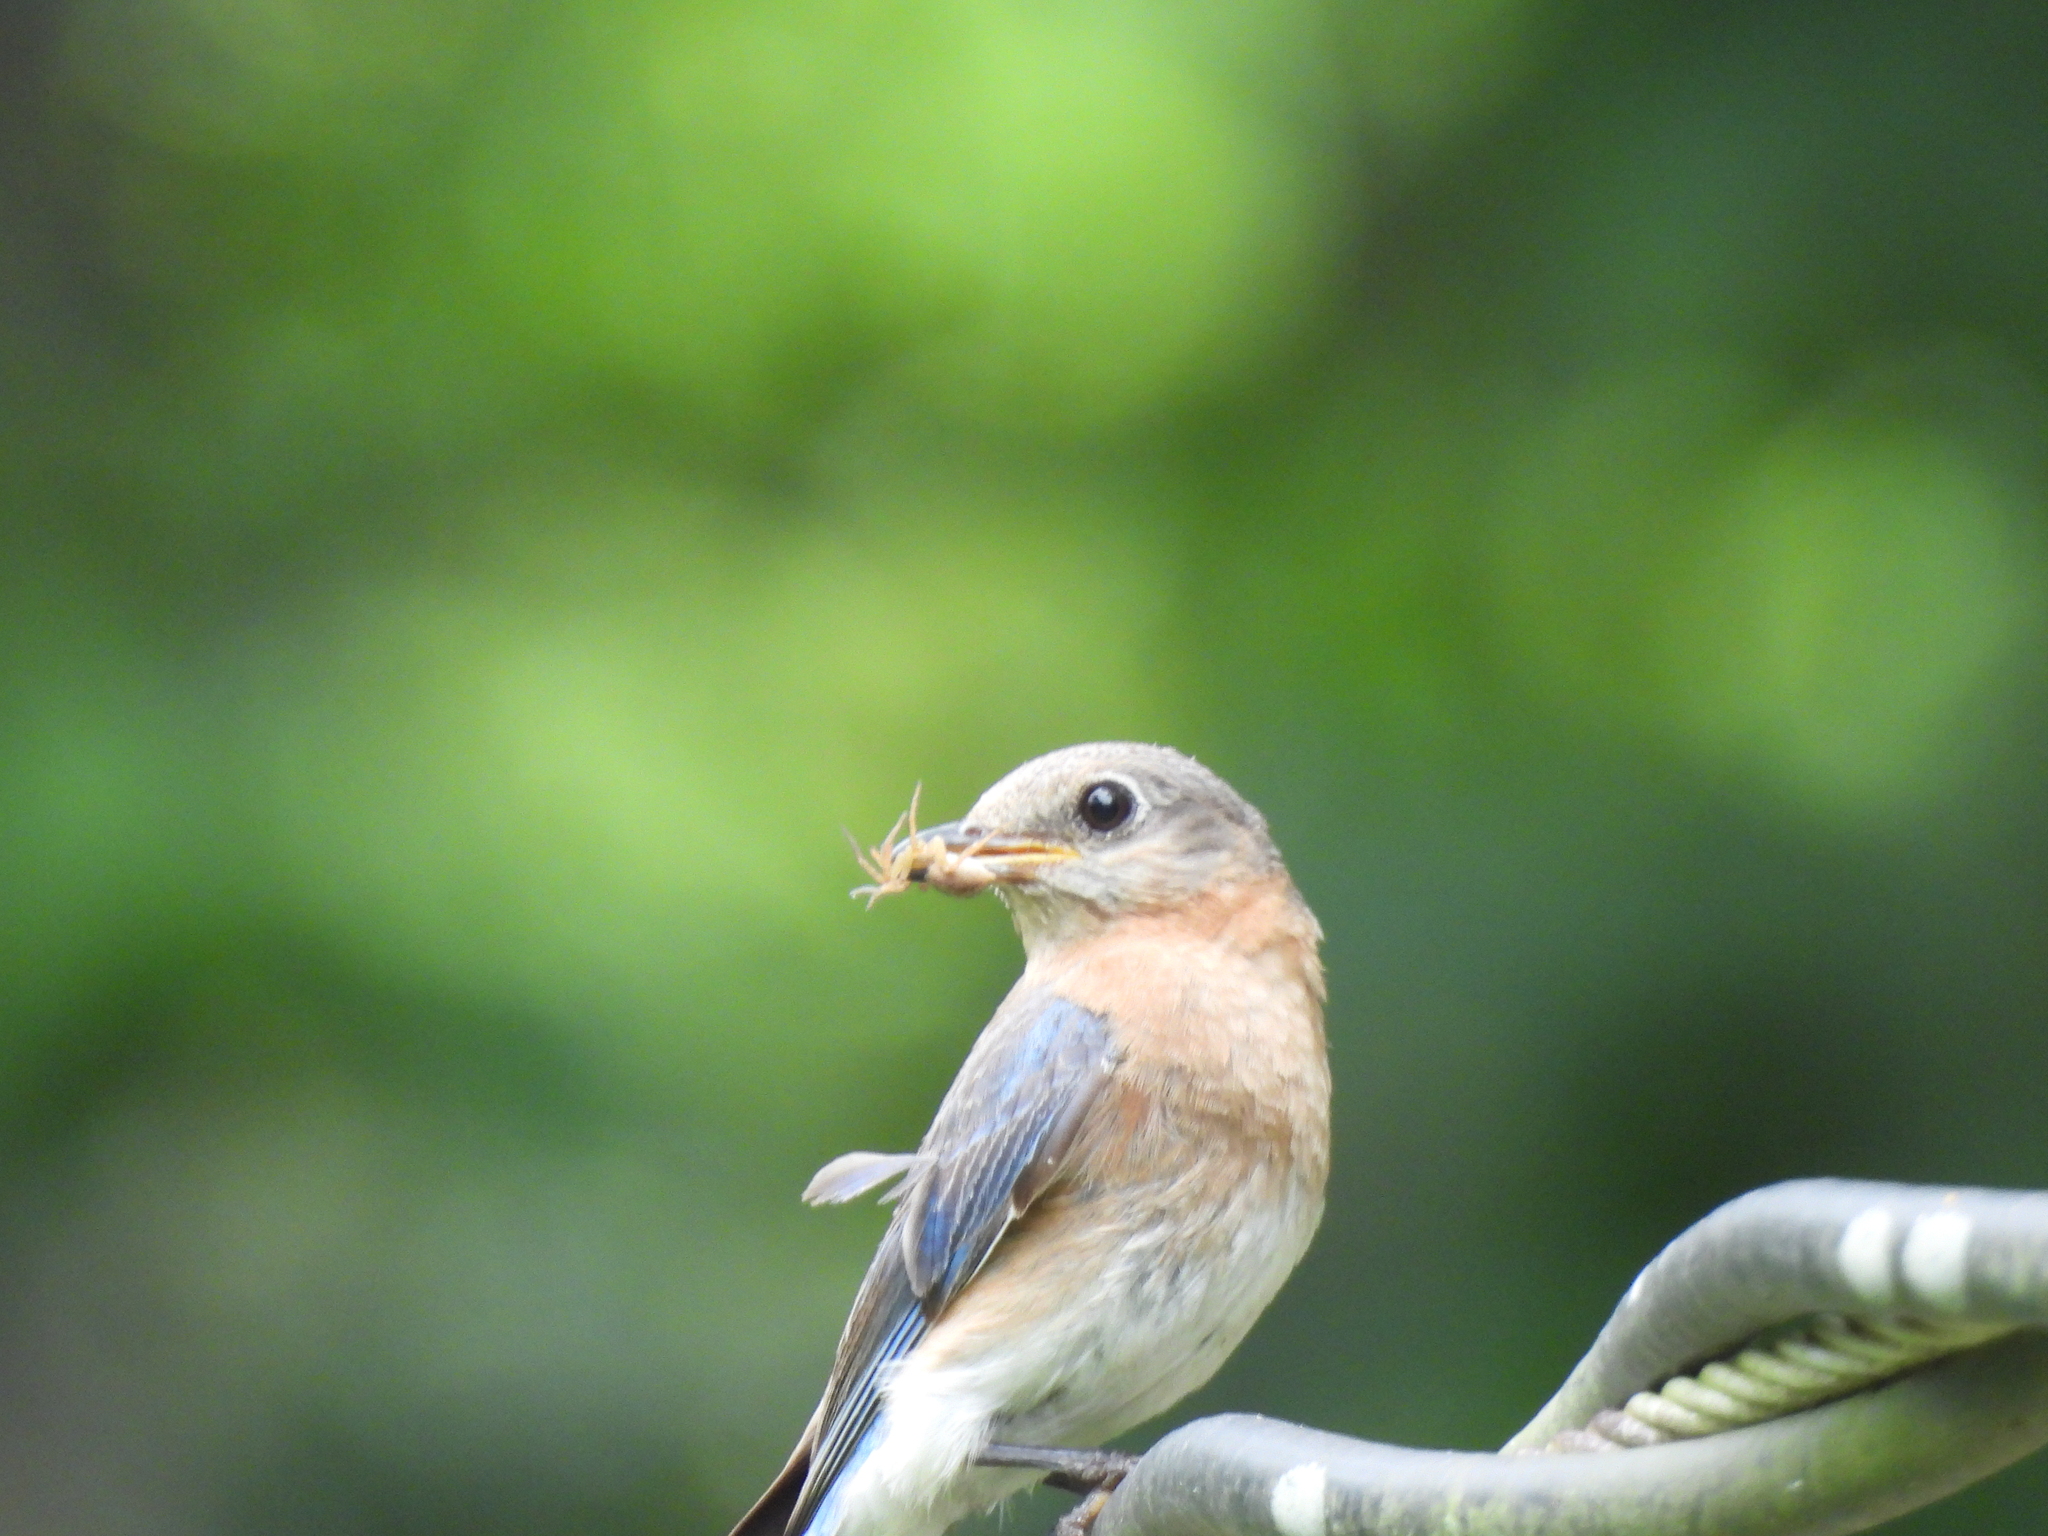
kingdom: Animalia
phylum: Chordata
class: Aves
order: Passeriformes
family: Turdidae
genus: Sialia
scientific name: Sialia sialis
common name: Eastern bluebird
